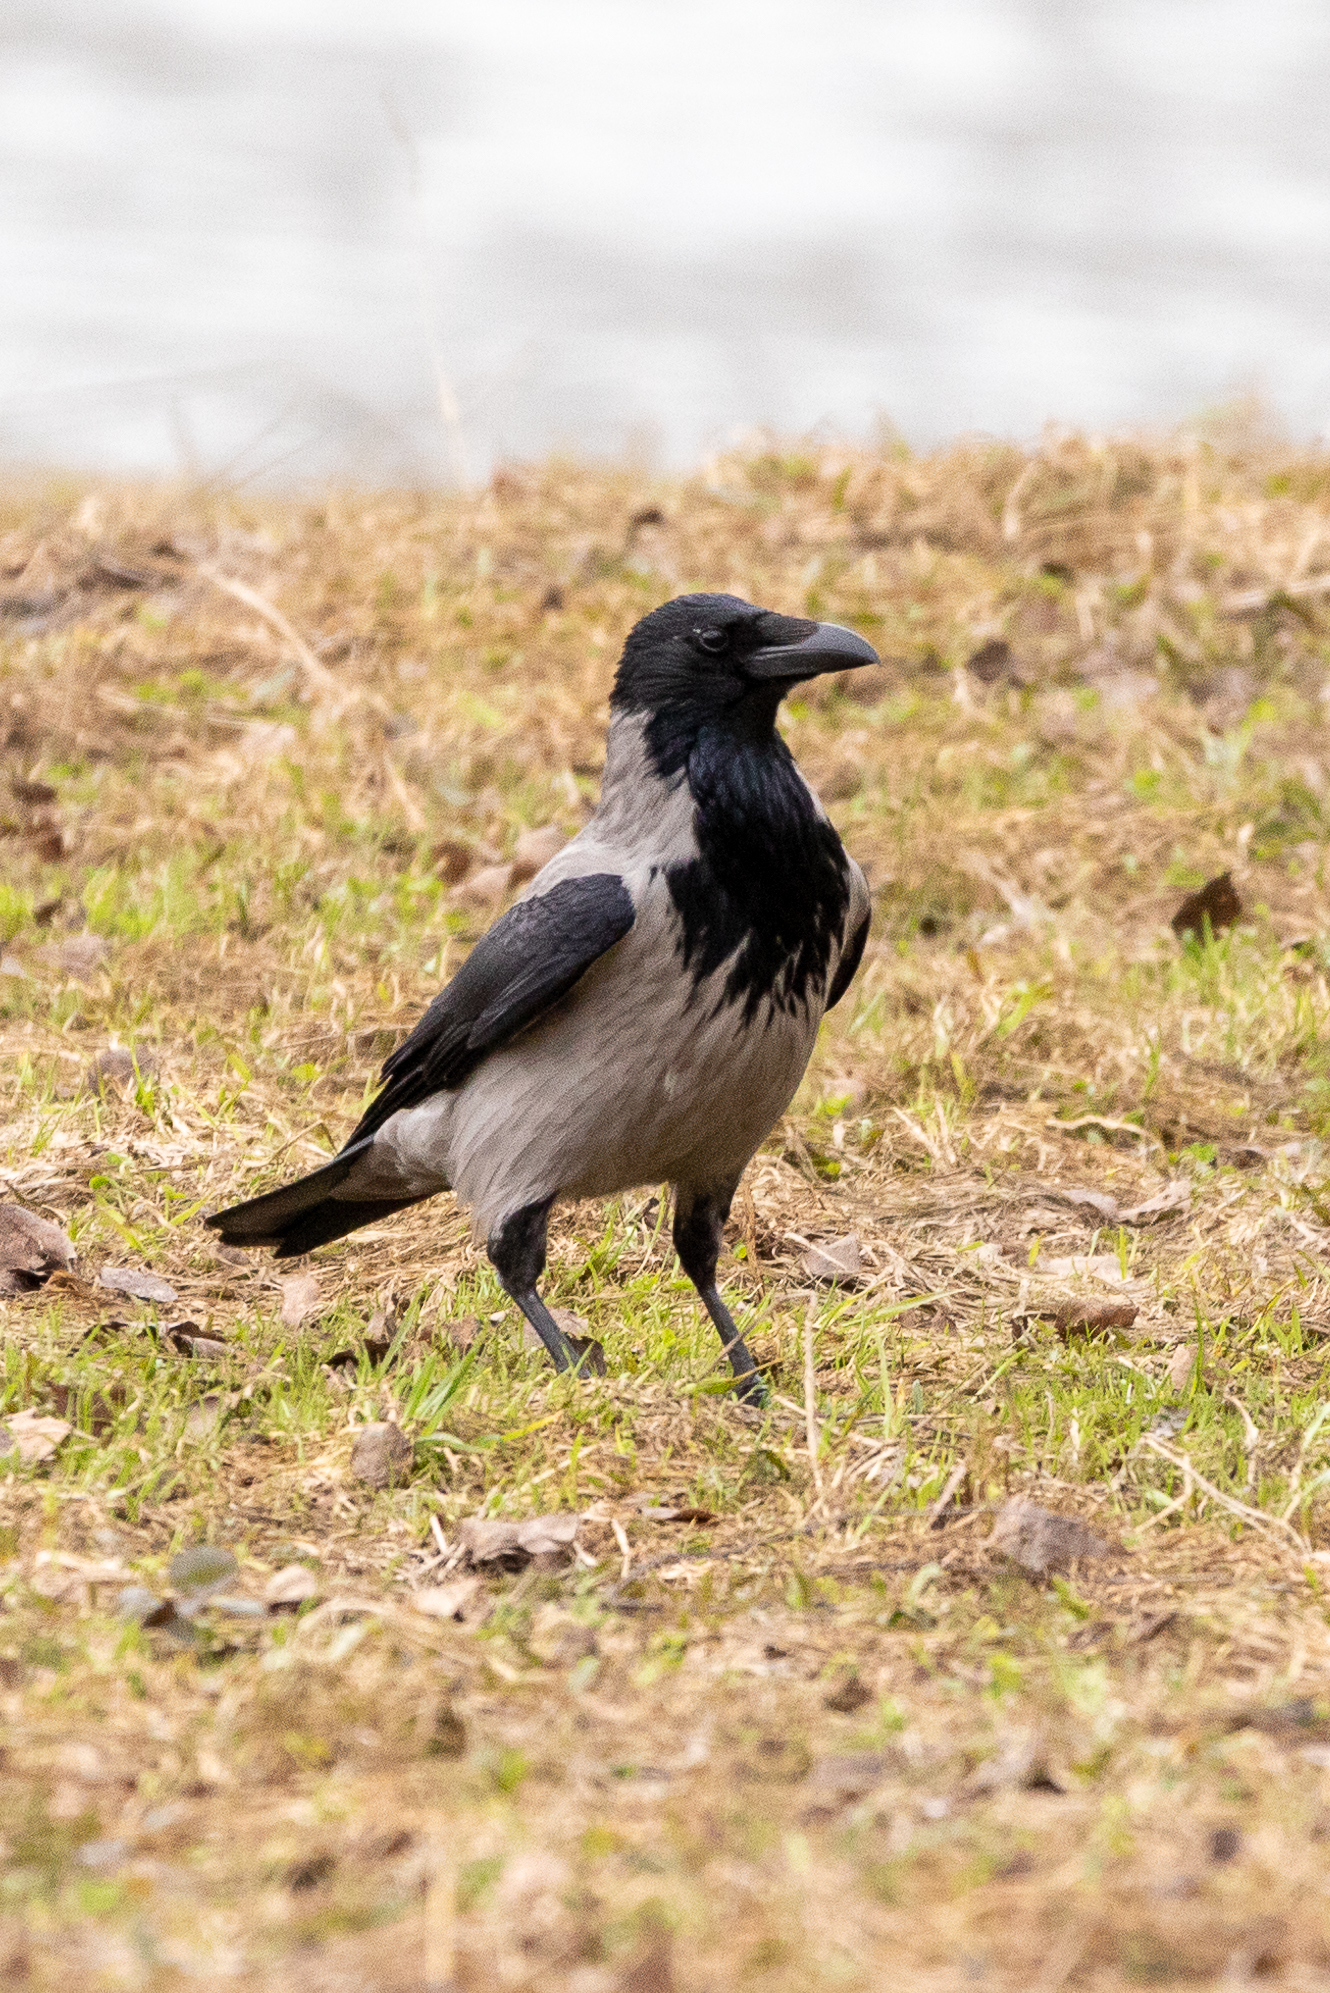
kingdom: Animalia
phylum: Chordata
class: Aves
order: Passeriformes
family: Corvidae
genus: Corvus
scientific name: Corvus cornix
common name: Hooded crow
